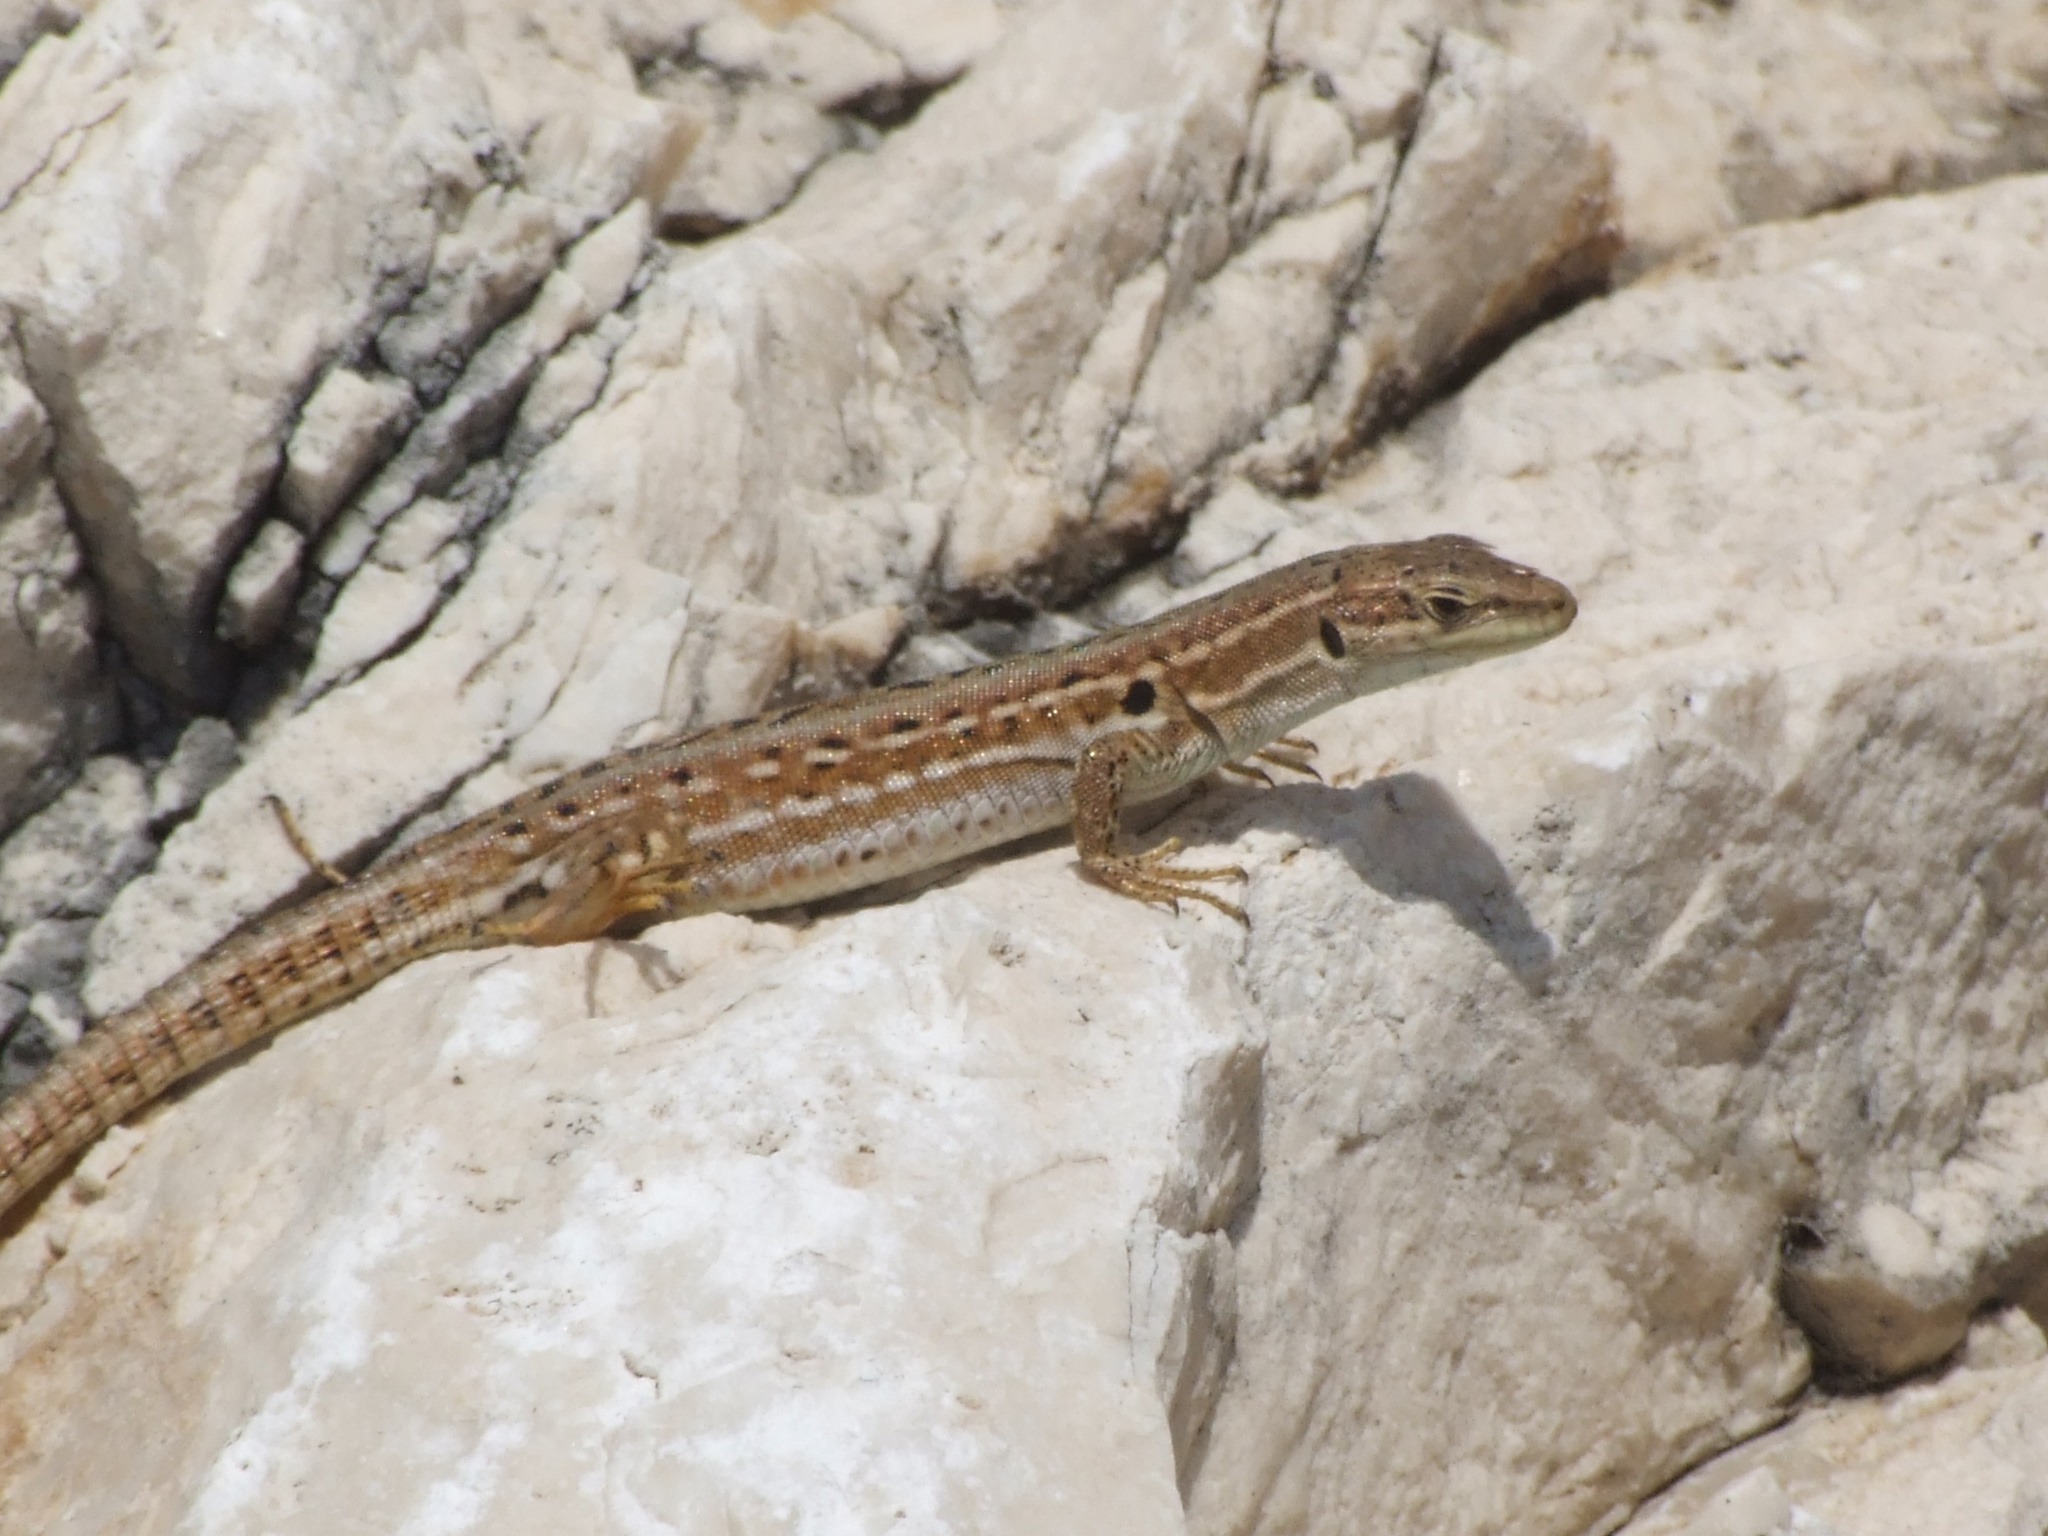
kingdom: Animalia
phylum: Chordata
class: Squamata
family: Lacertidae
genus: Podarcis
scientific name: Podarcis siculus
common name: Italian wall lizard
